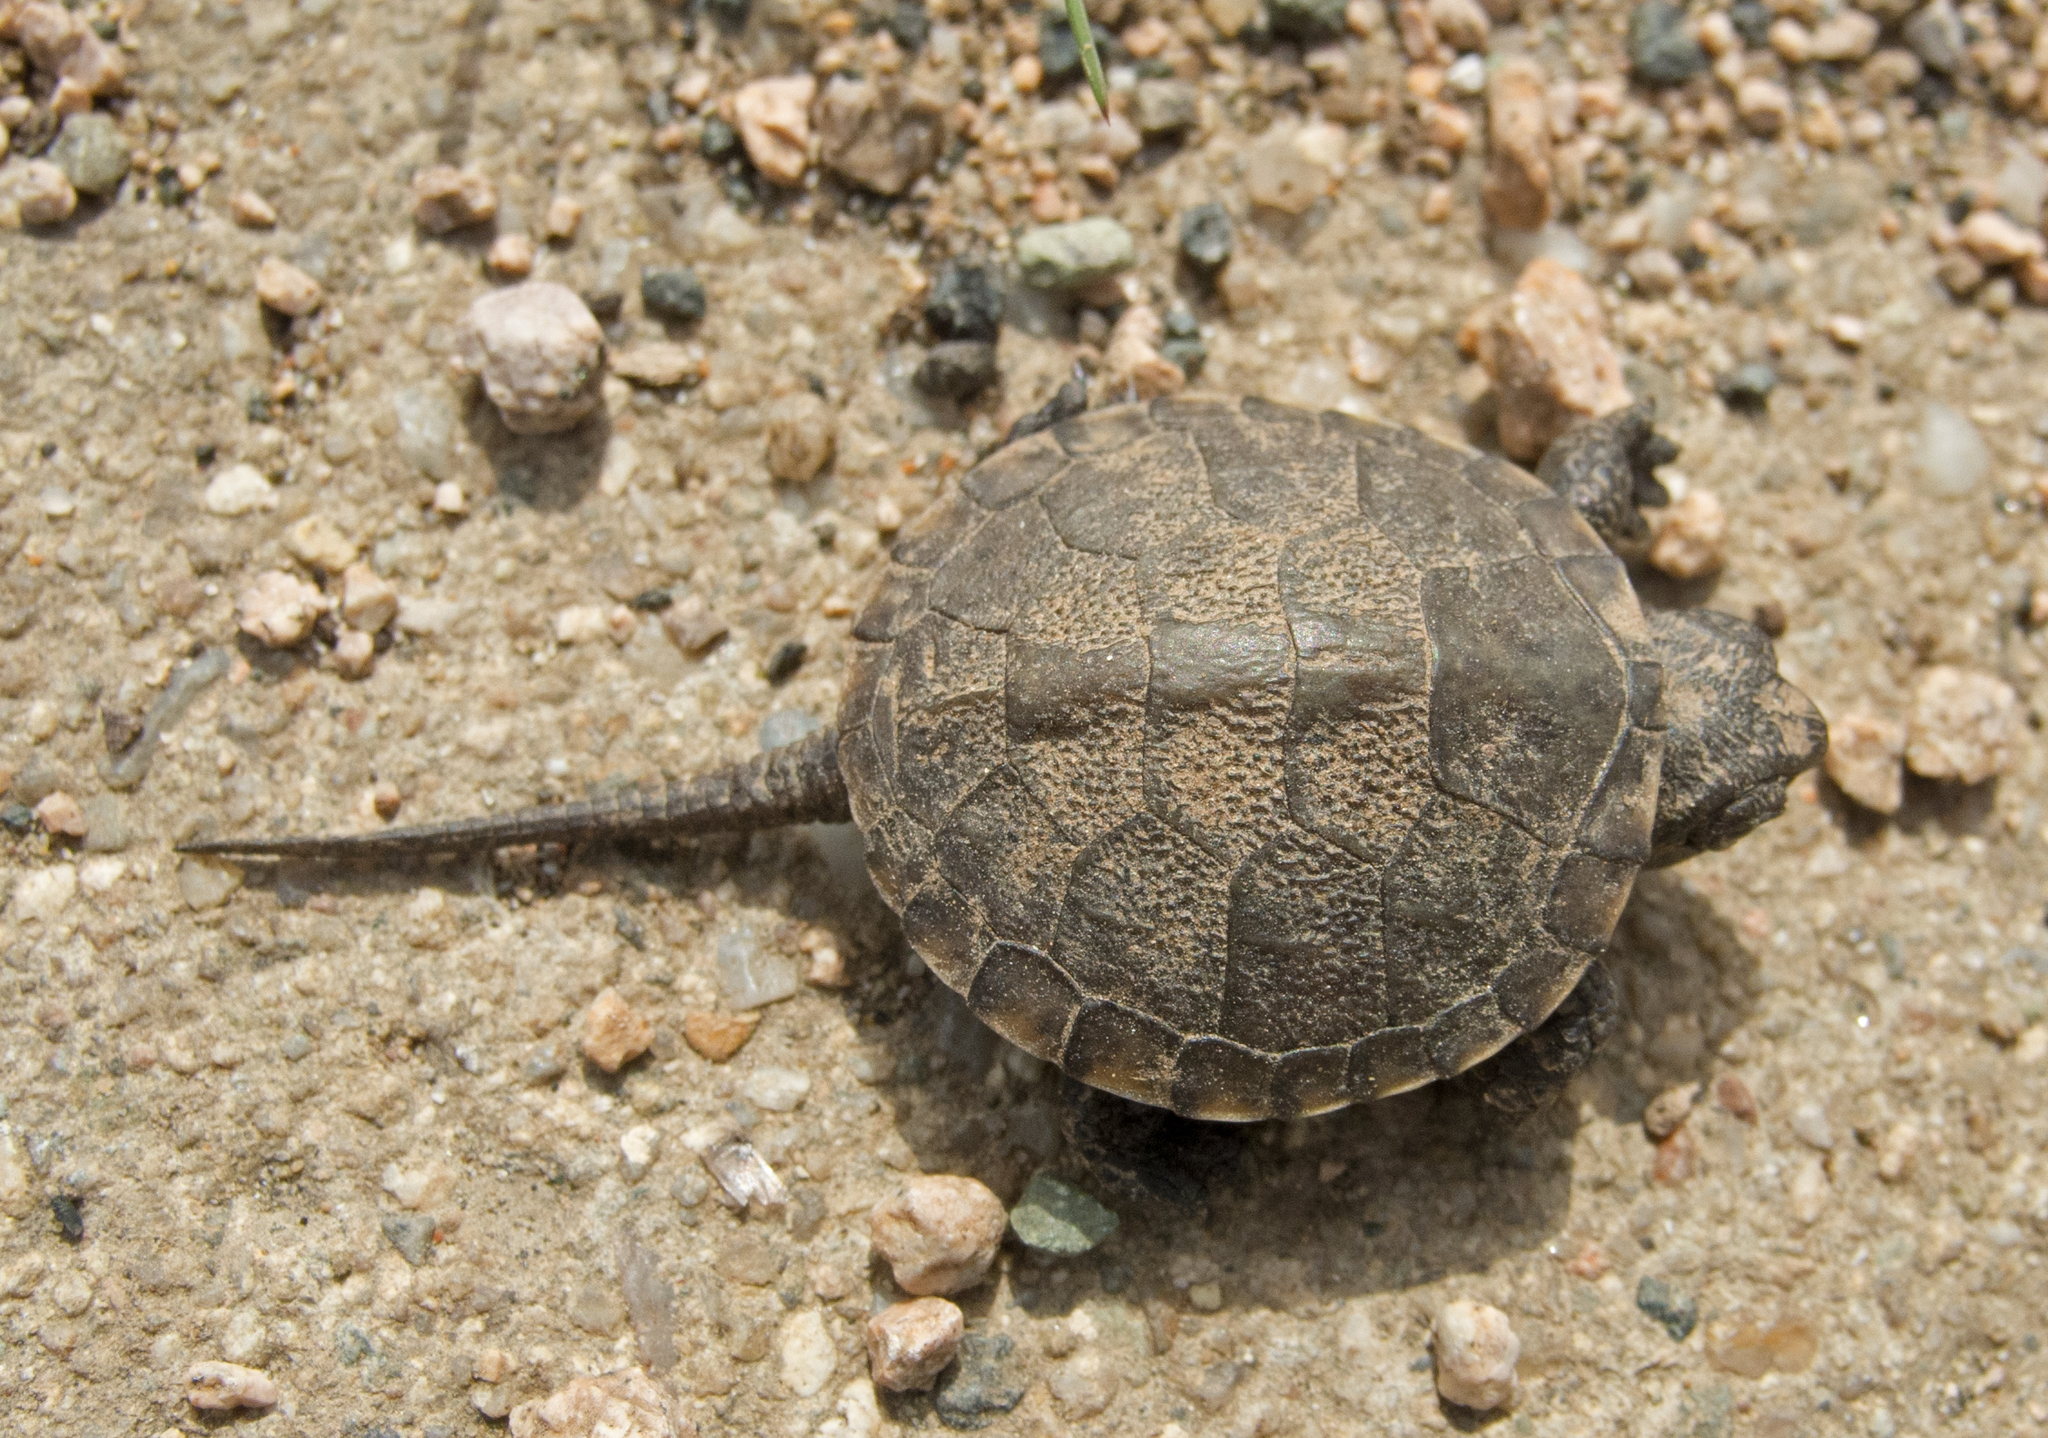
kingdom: Animalia
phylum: Chordata
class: Testudines
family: Emydidae
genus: Emys
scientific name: Emys orbicularis
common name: European pond turtle
